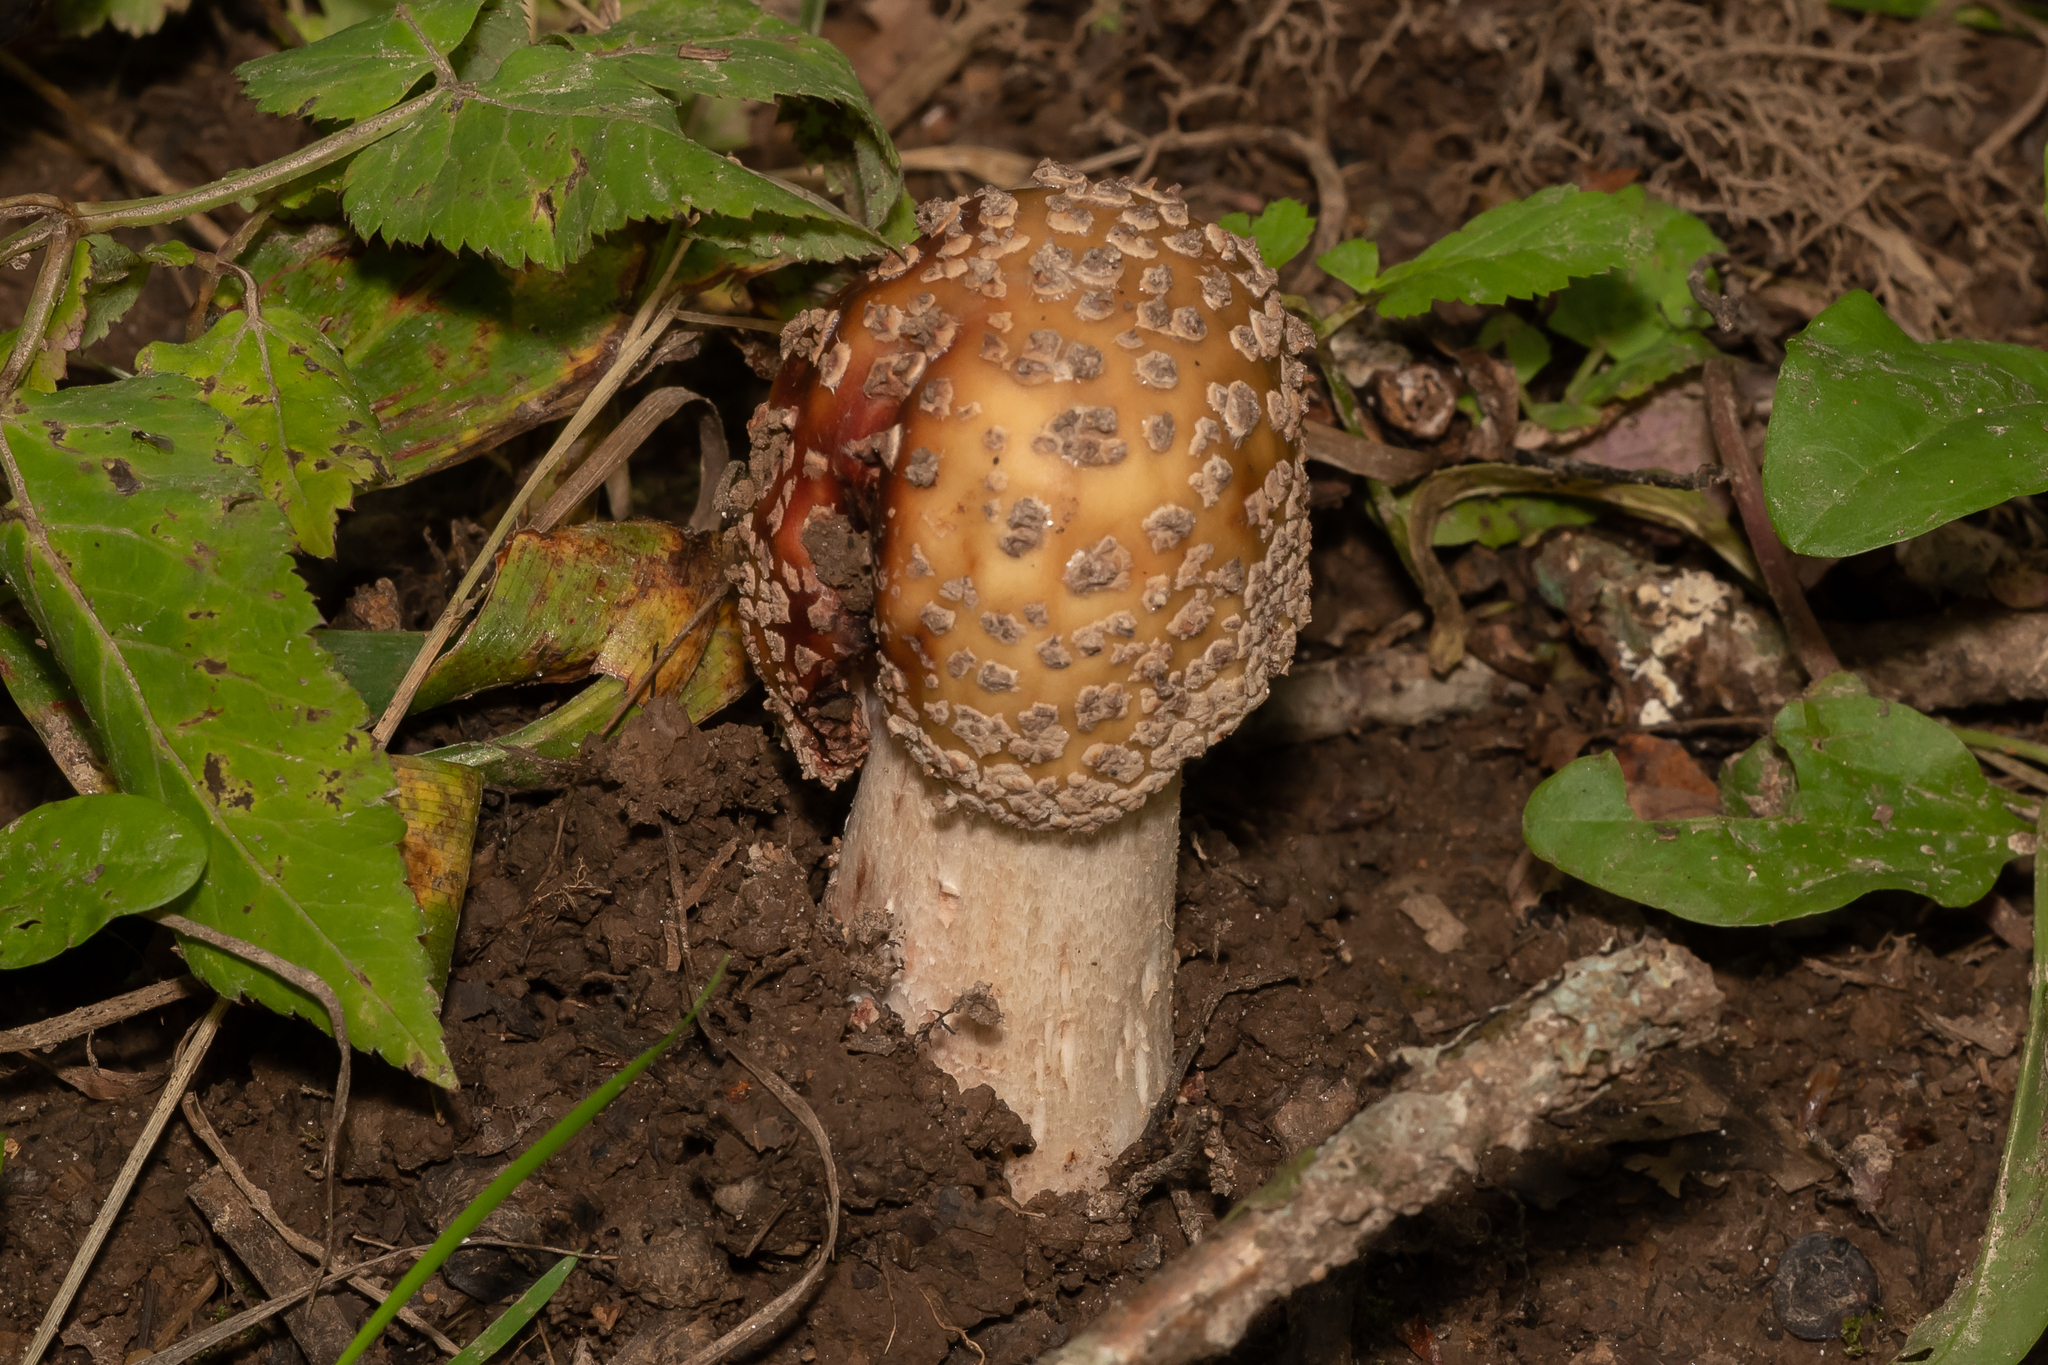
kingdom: Fungi
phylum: Basidiomycota
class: Agaricomycetes
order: Agaricales
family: Amanitaceae
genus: Amanita
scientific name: Amanita rubescens
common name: Blusher
